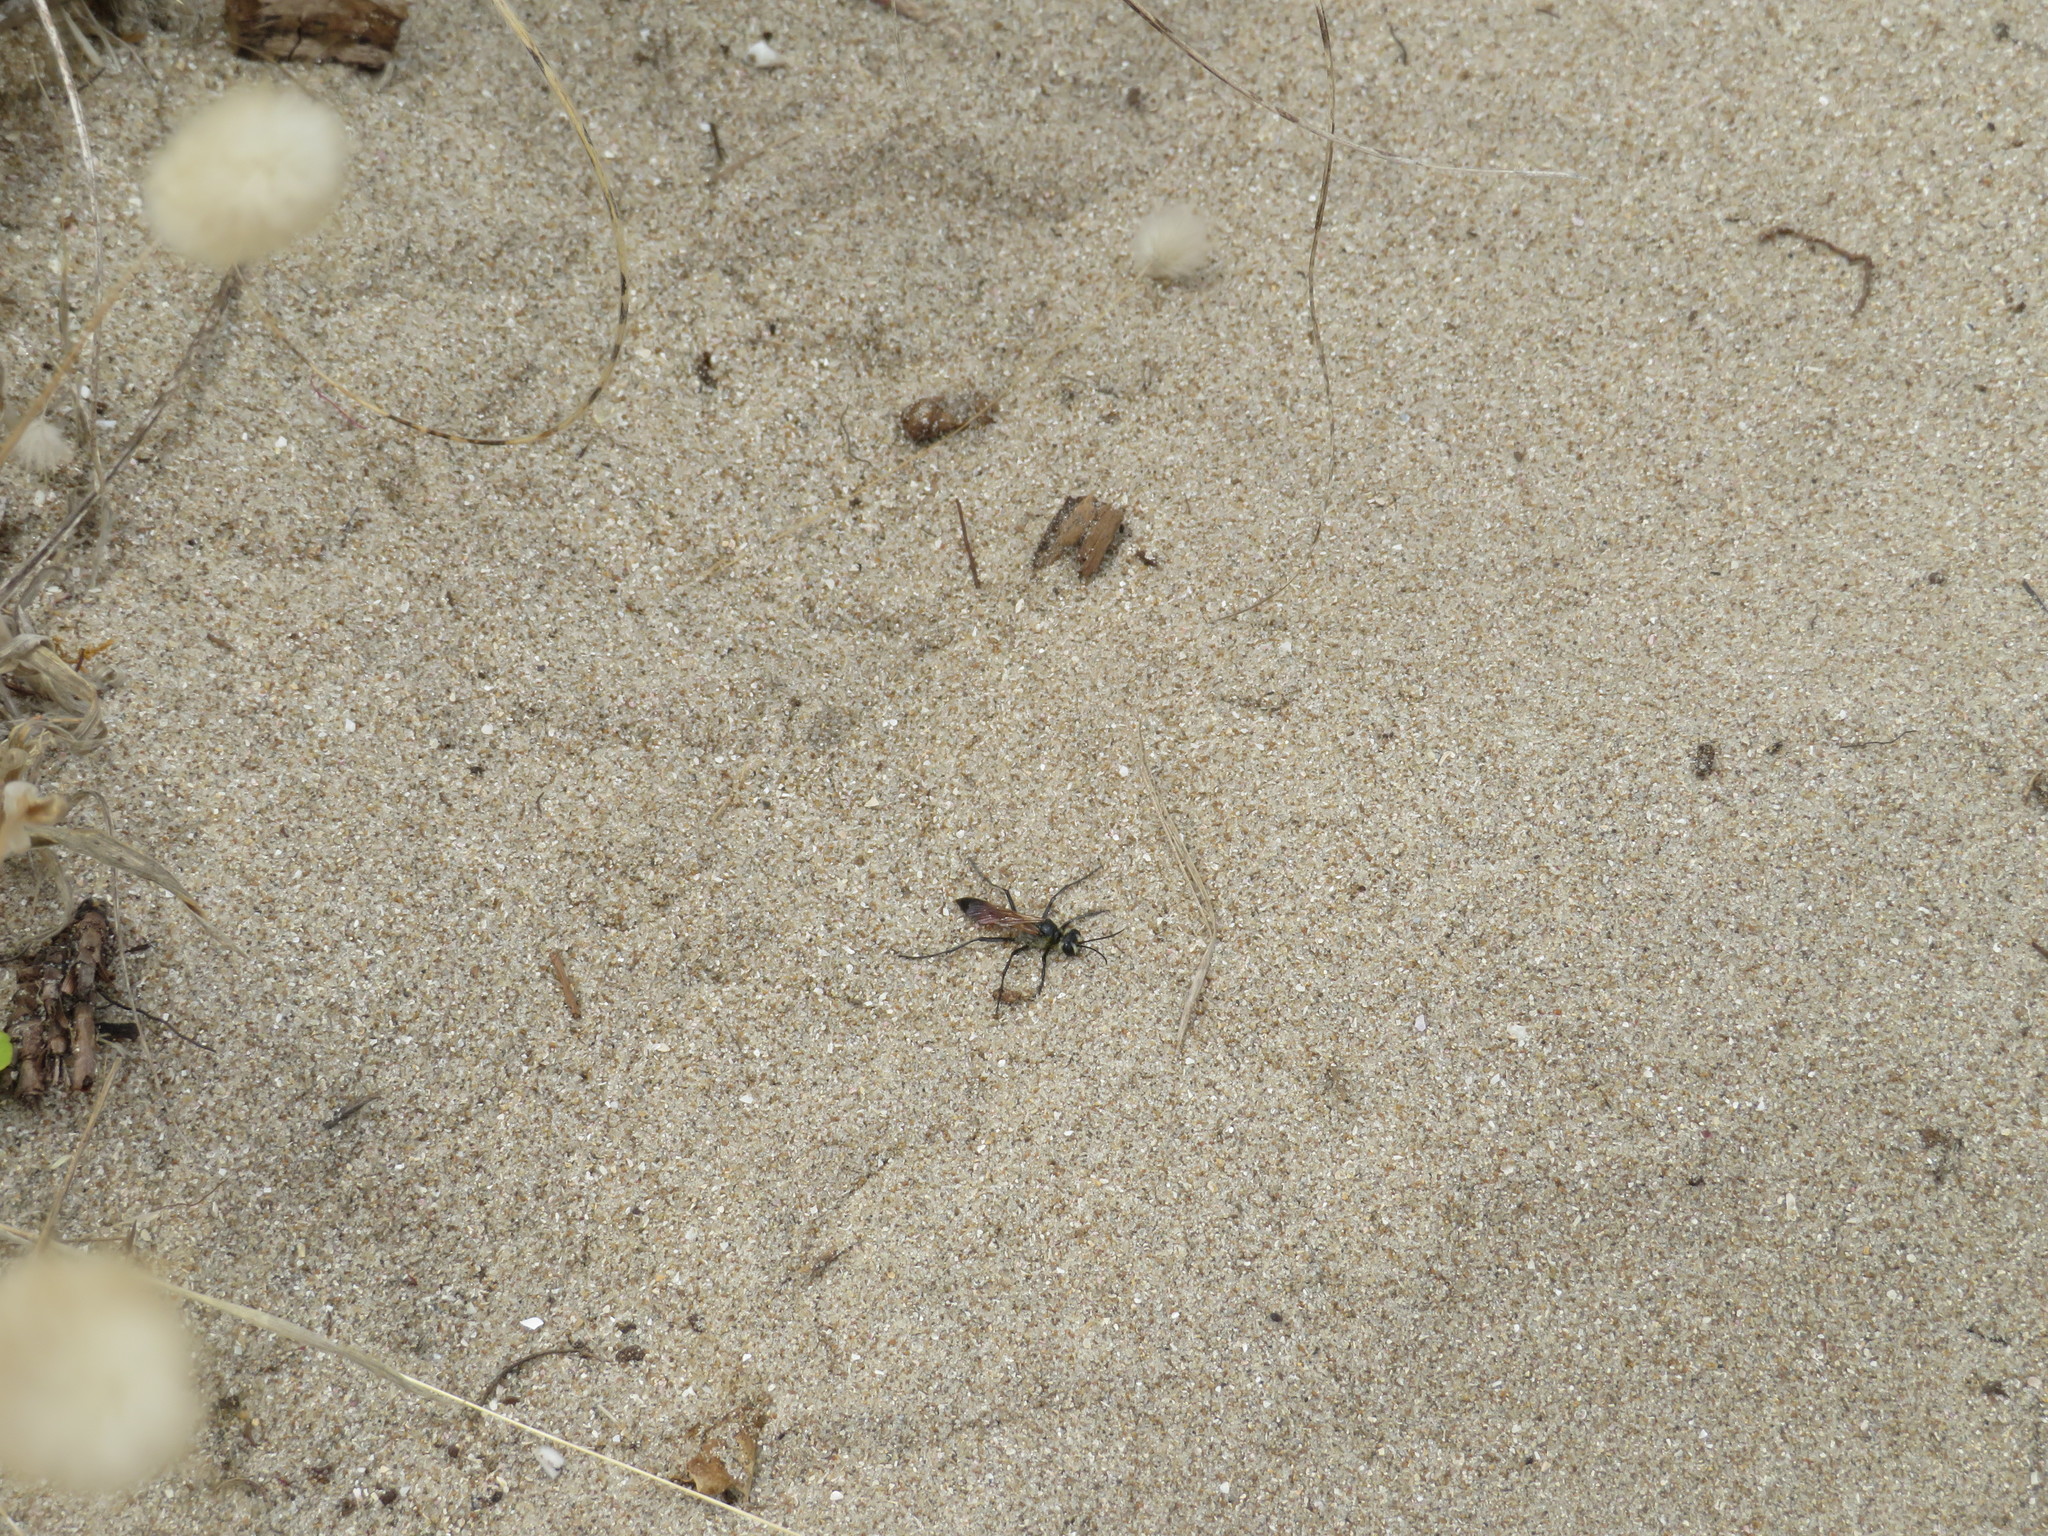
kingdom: Animalia
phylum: Arthropoda
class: Insecta
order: Hymenoptera
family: Sphecidae
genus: Podalonia
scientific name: Podalonia tydei
